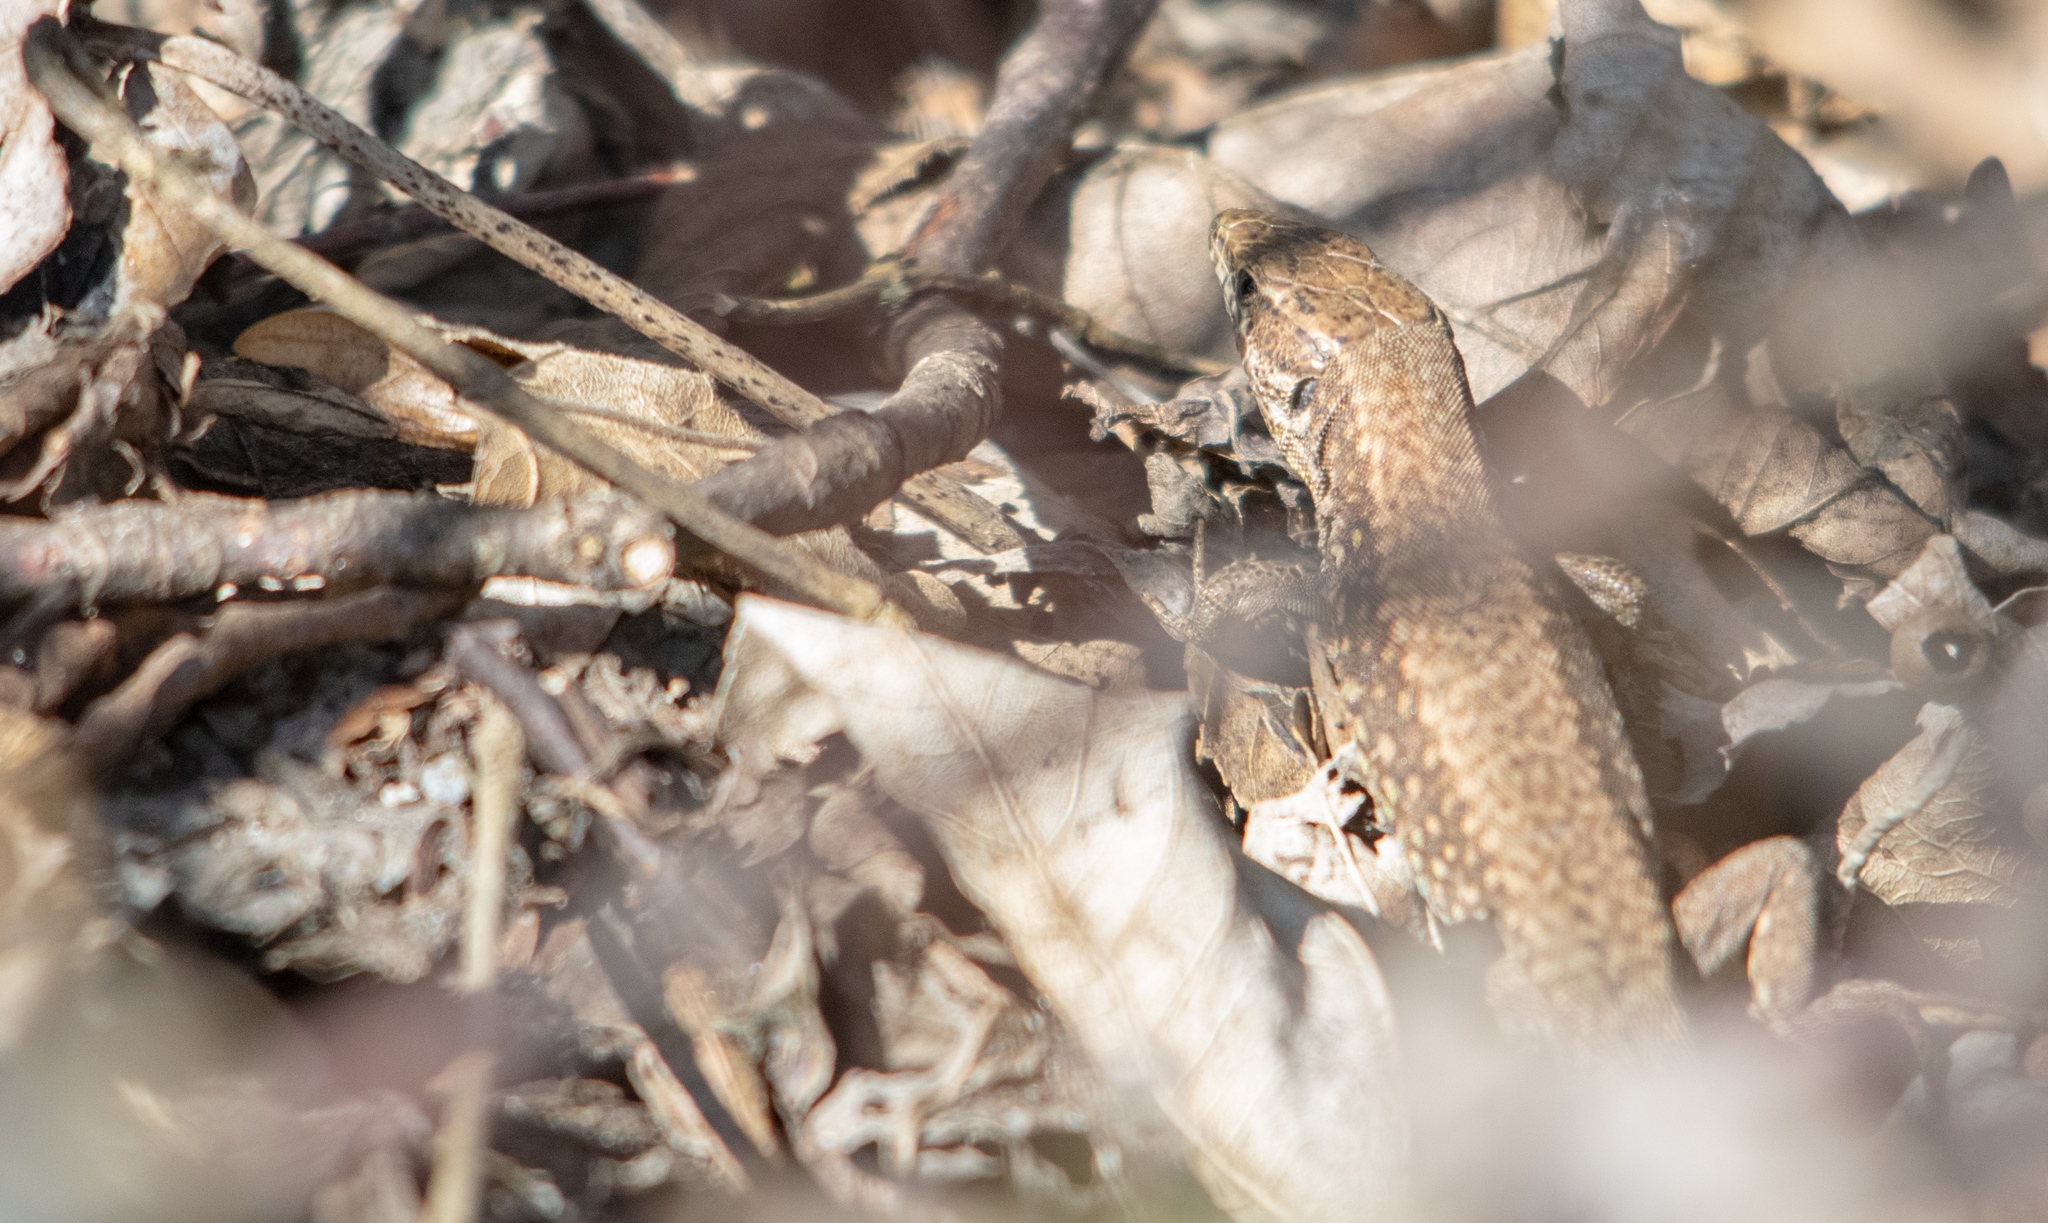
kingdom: Animalia
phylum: Chordata
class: Squamata
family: Lacertidae
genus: Podarcis
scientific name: Podarcis muralis
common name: Common wall lizard
